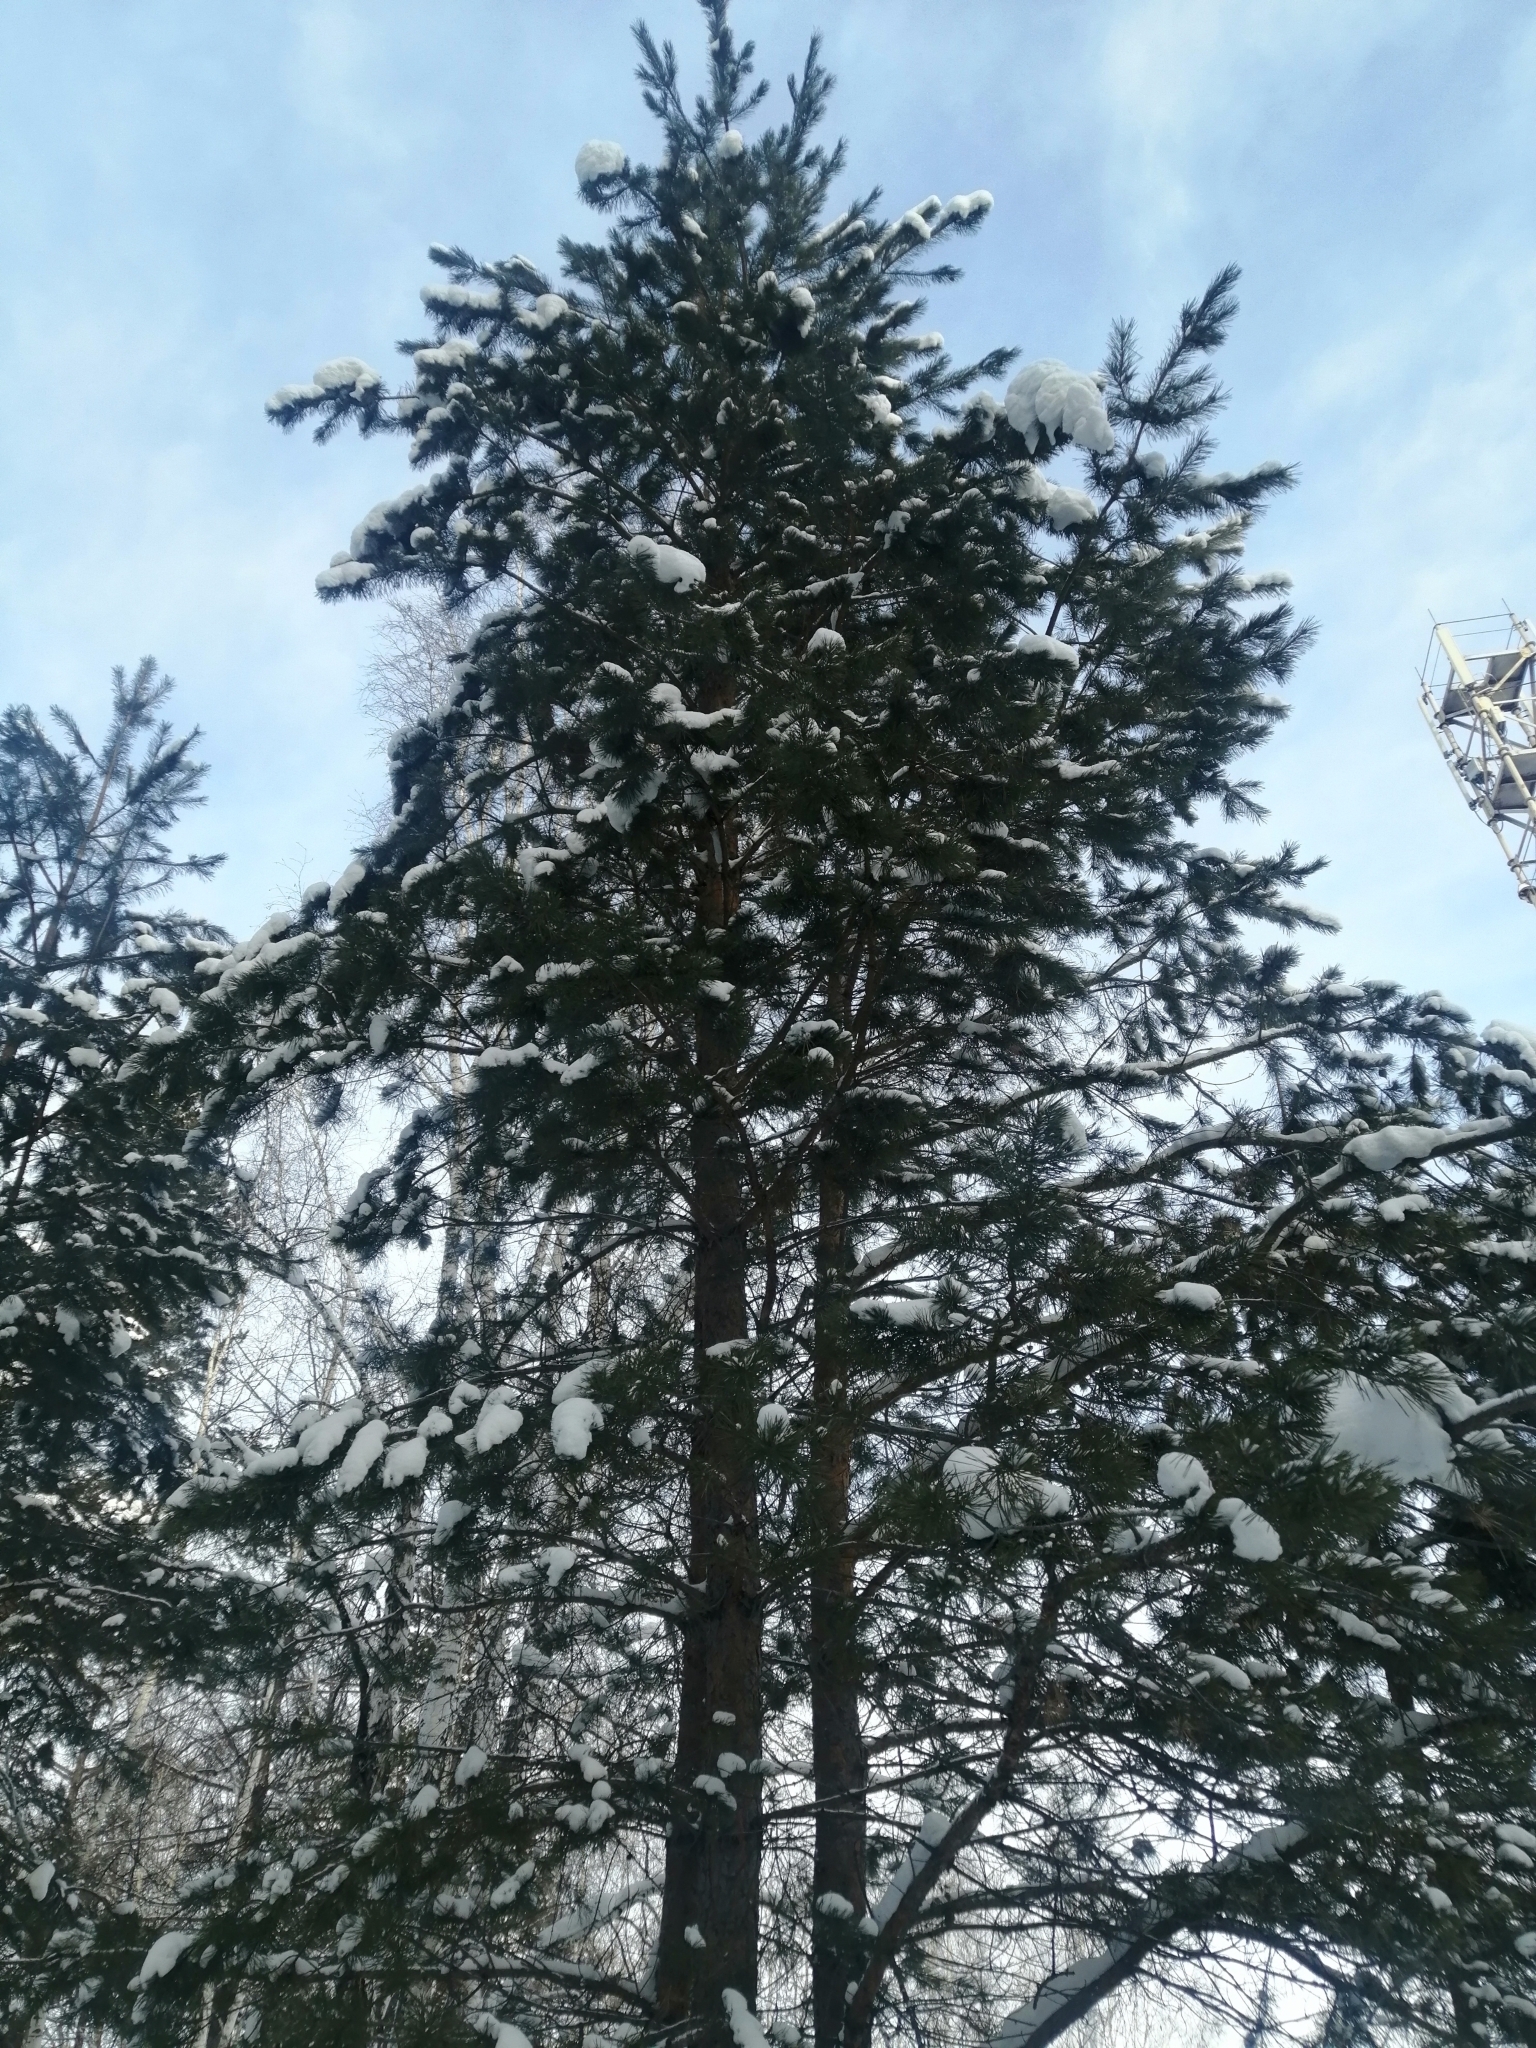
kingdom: Plantae
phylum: Tracheophyta
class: Pinopsida
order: Pinales
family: Pinaceae
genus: Pinus
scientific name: Pinus sylvestris
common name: Scots pine
